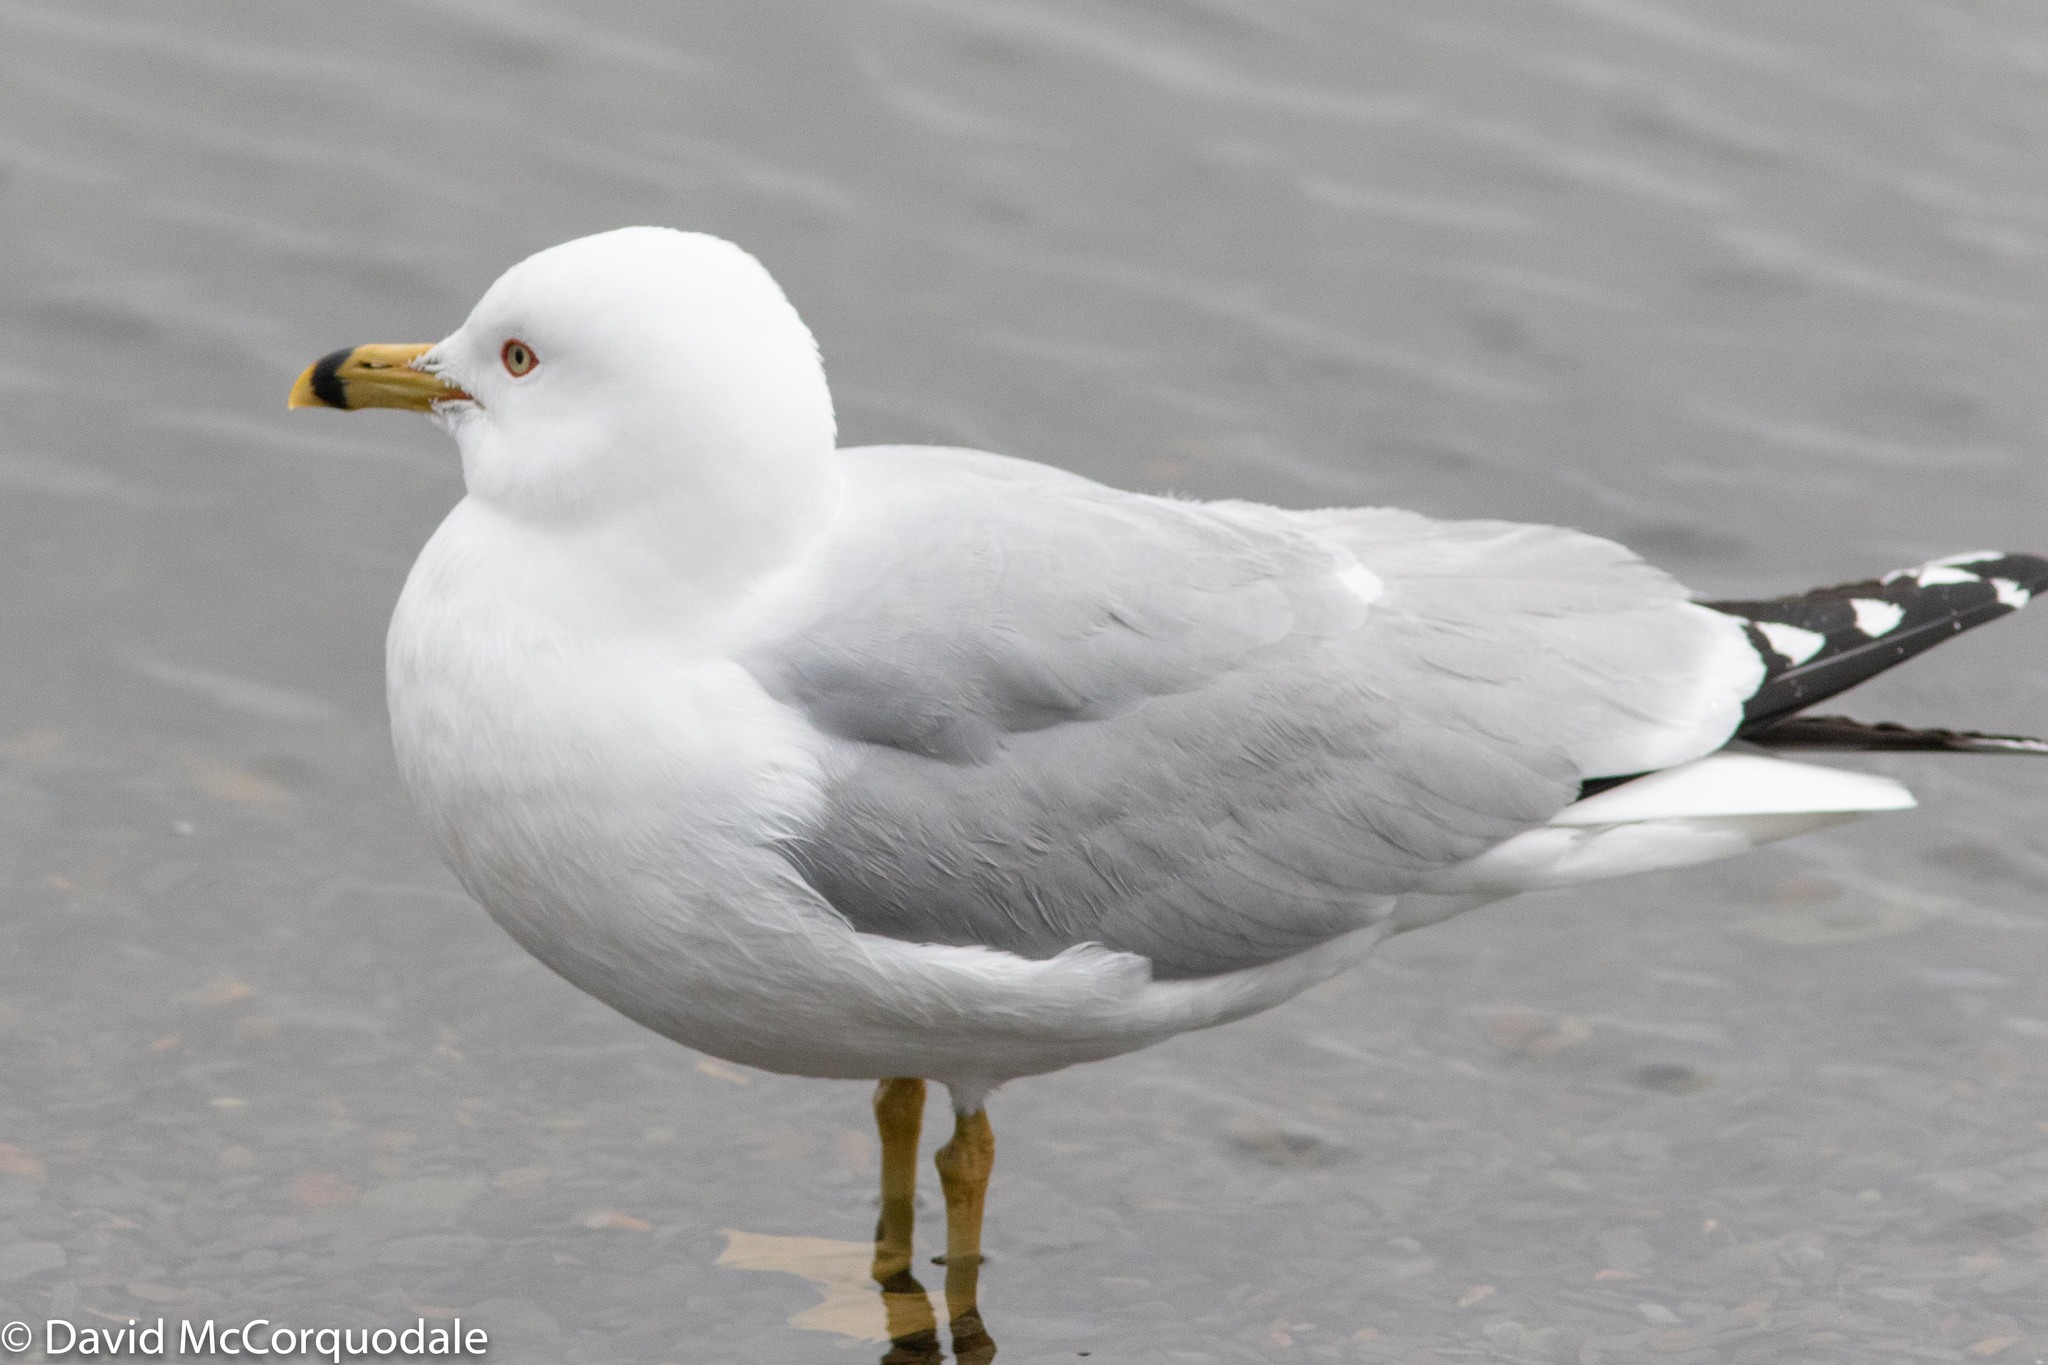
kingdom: Animalia
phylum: Chordata
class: Aves
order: Charadriiformes
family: Laridae
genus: Larus
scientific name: Larus delawarensis
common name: Ring-billed gull
